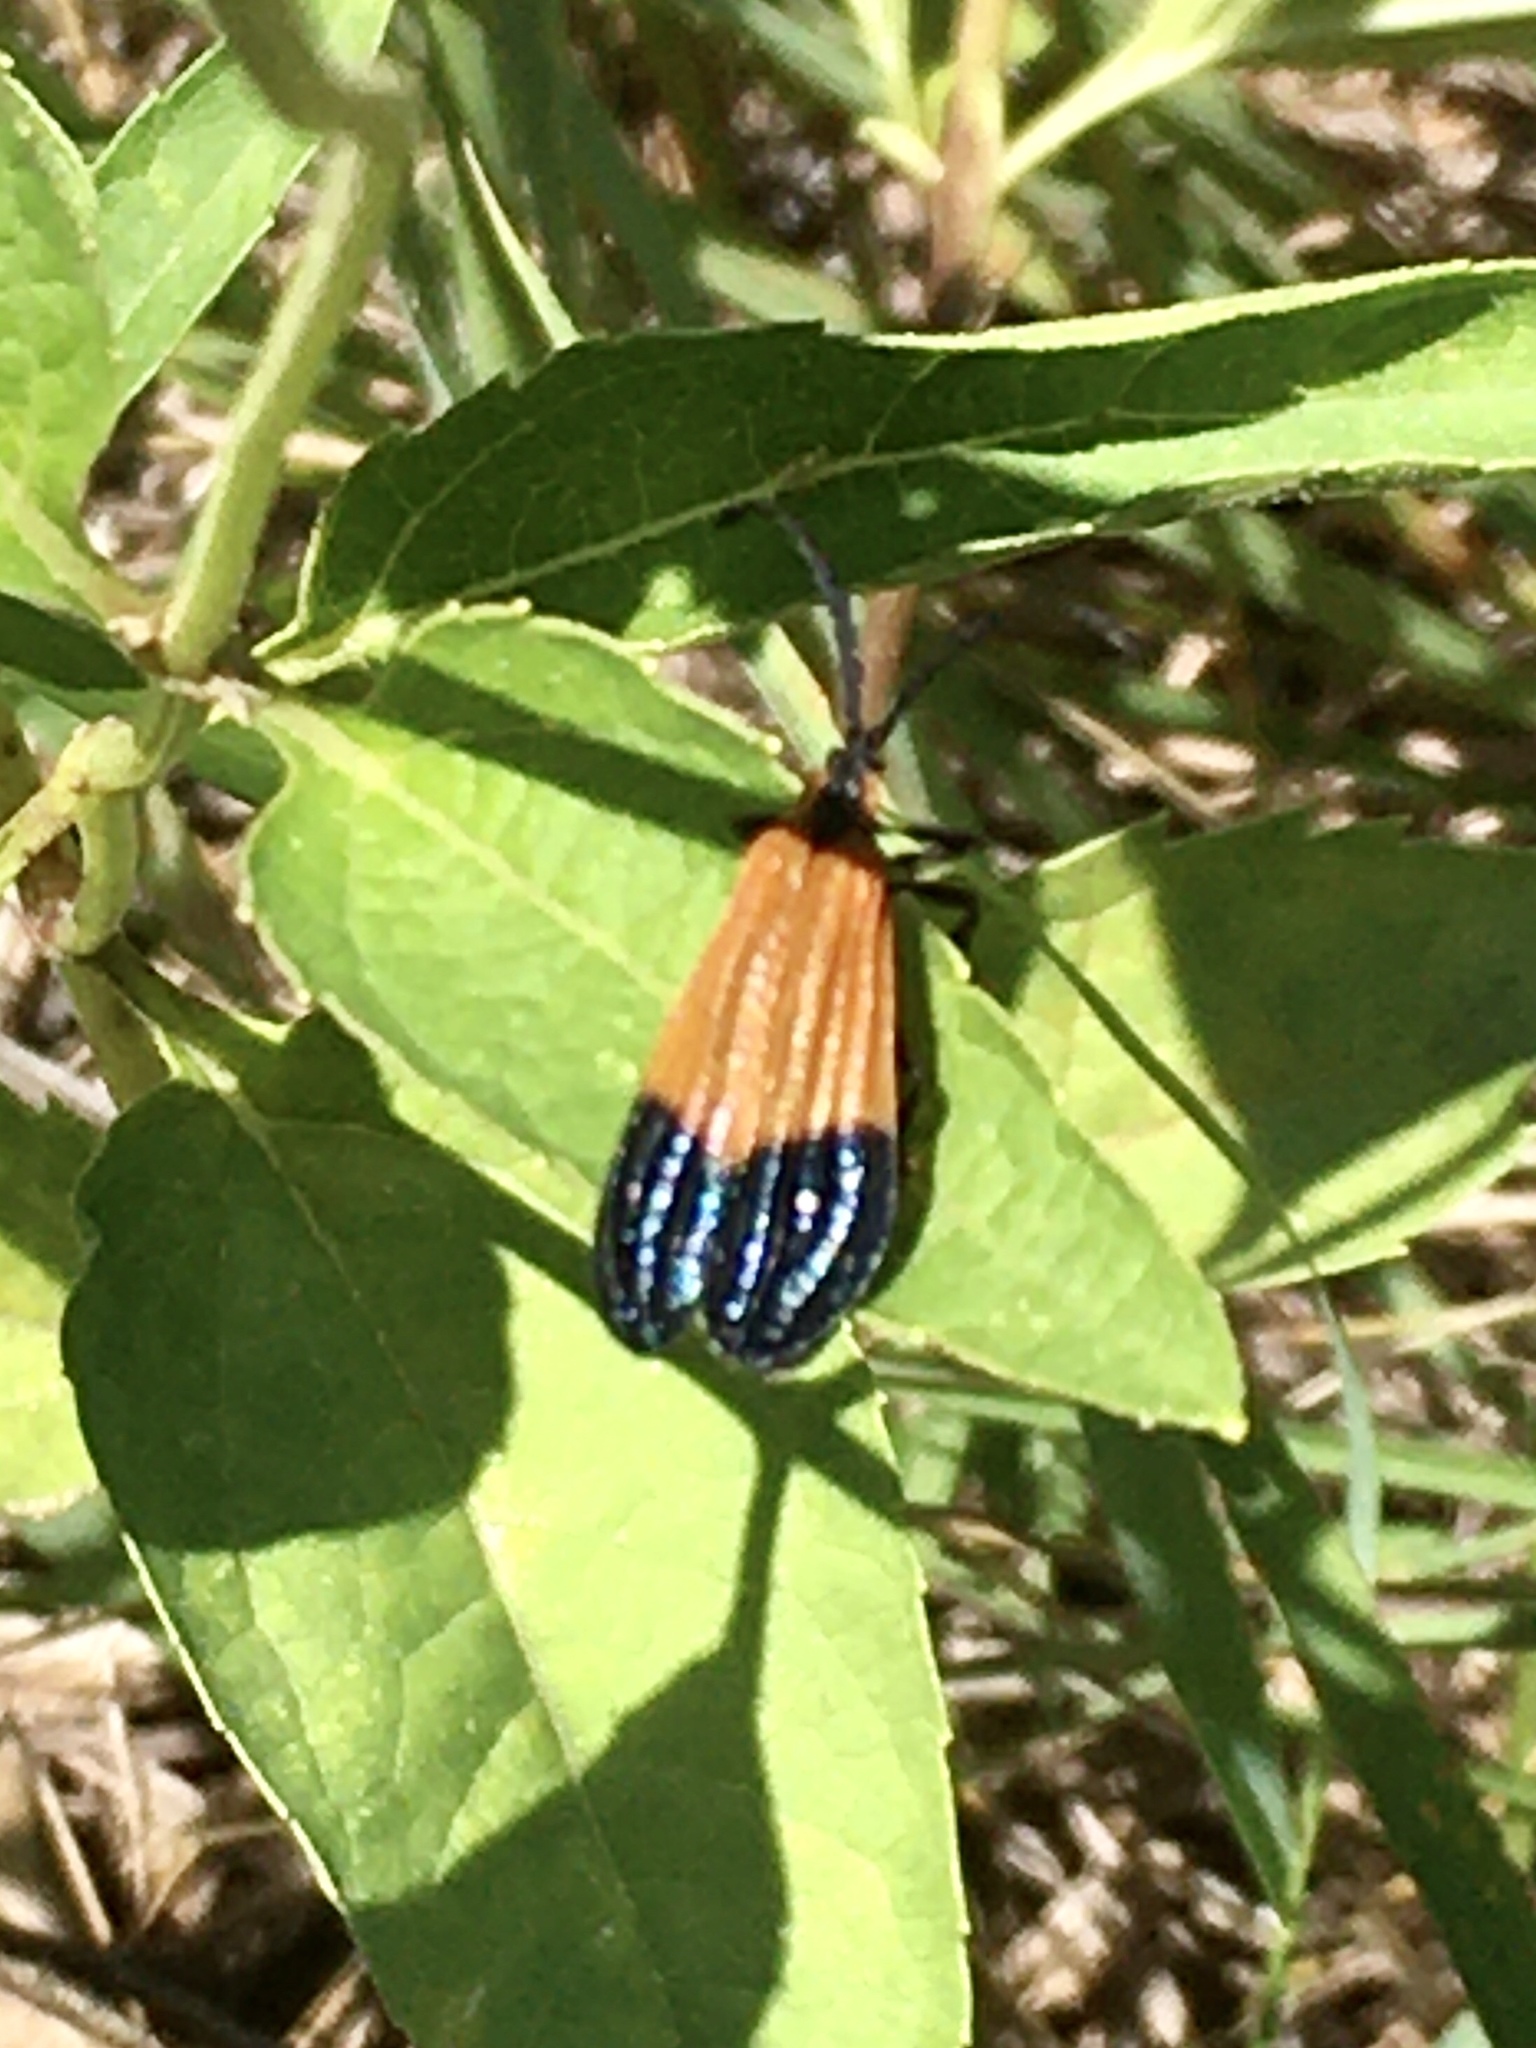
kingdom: Animalia
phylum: Arthropoda
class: Insecta
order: Coleoptera
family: Lycidae
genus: Calopteron
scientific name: Calopteron terminale
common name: End band net-winged beetle
